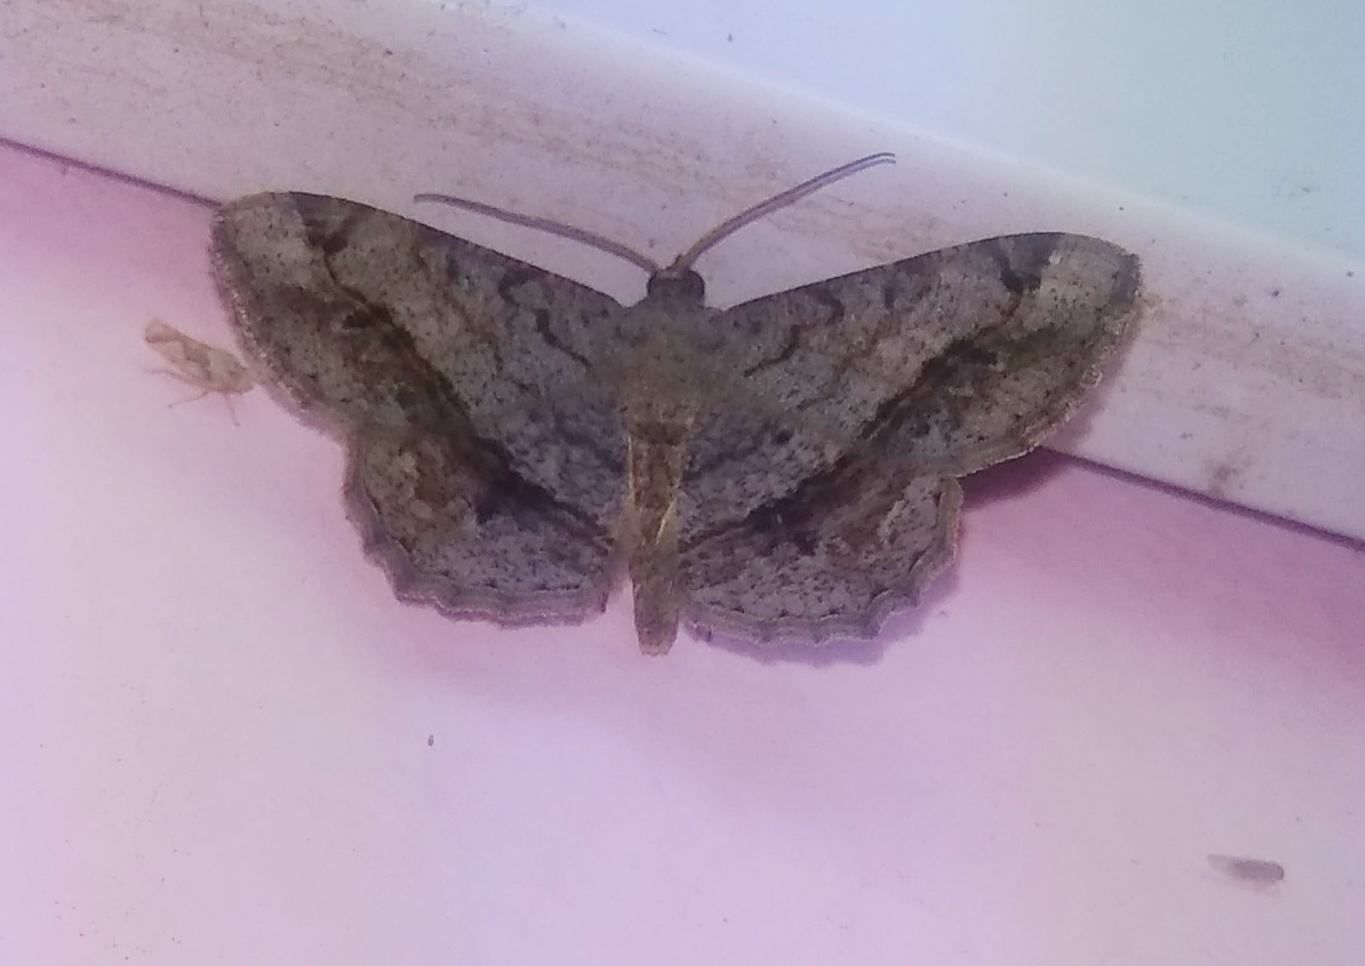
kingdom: Animalia
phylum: Arthropoda
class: Insecta
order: Lepidoptera
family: Geometridae
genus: Chiasmia
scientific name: Chiasmia hebesata
